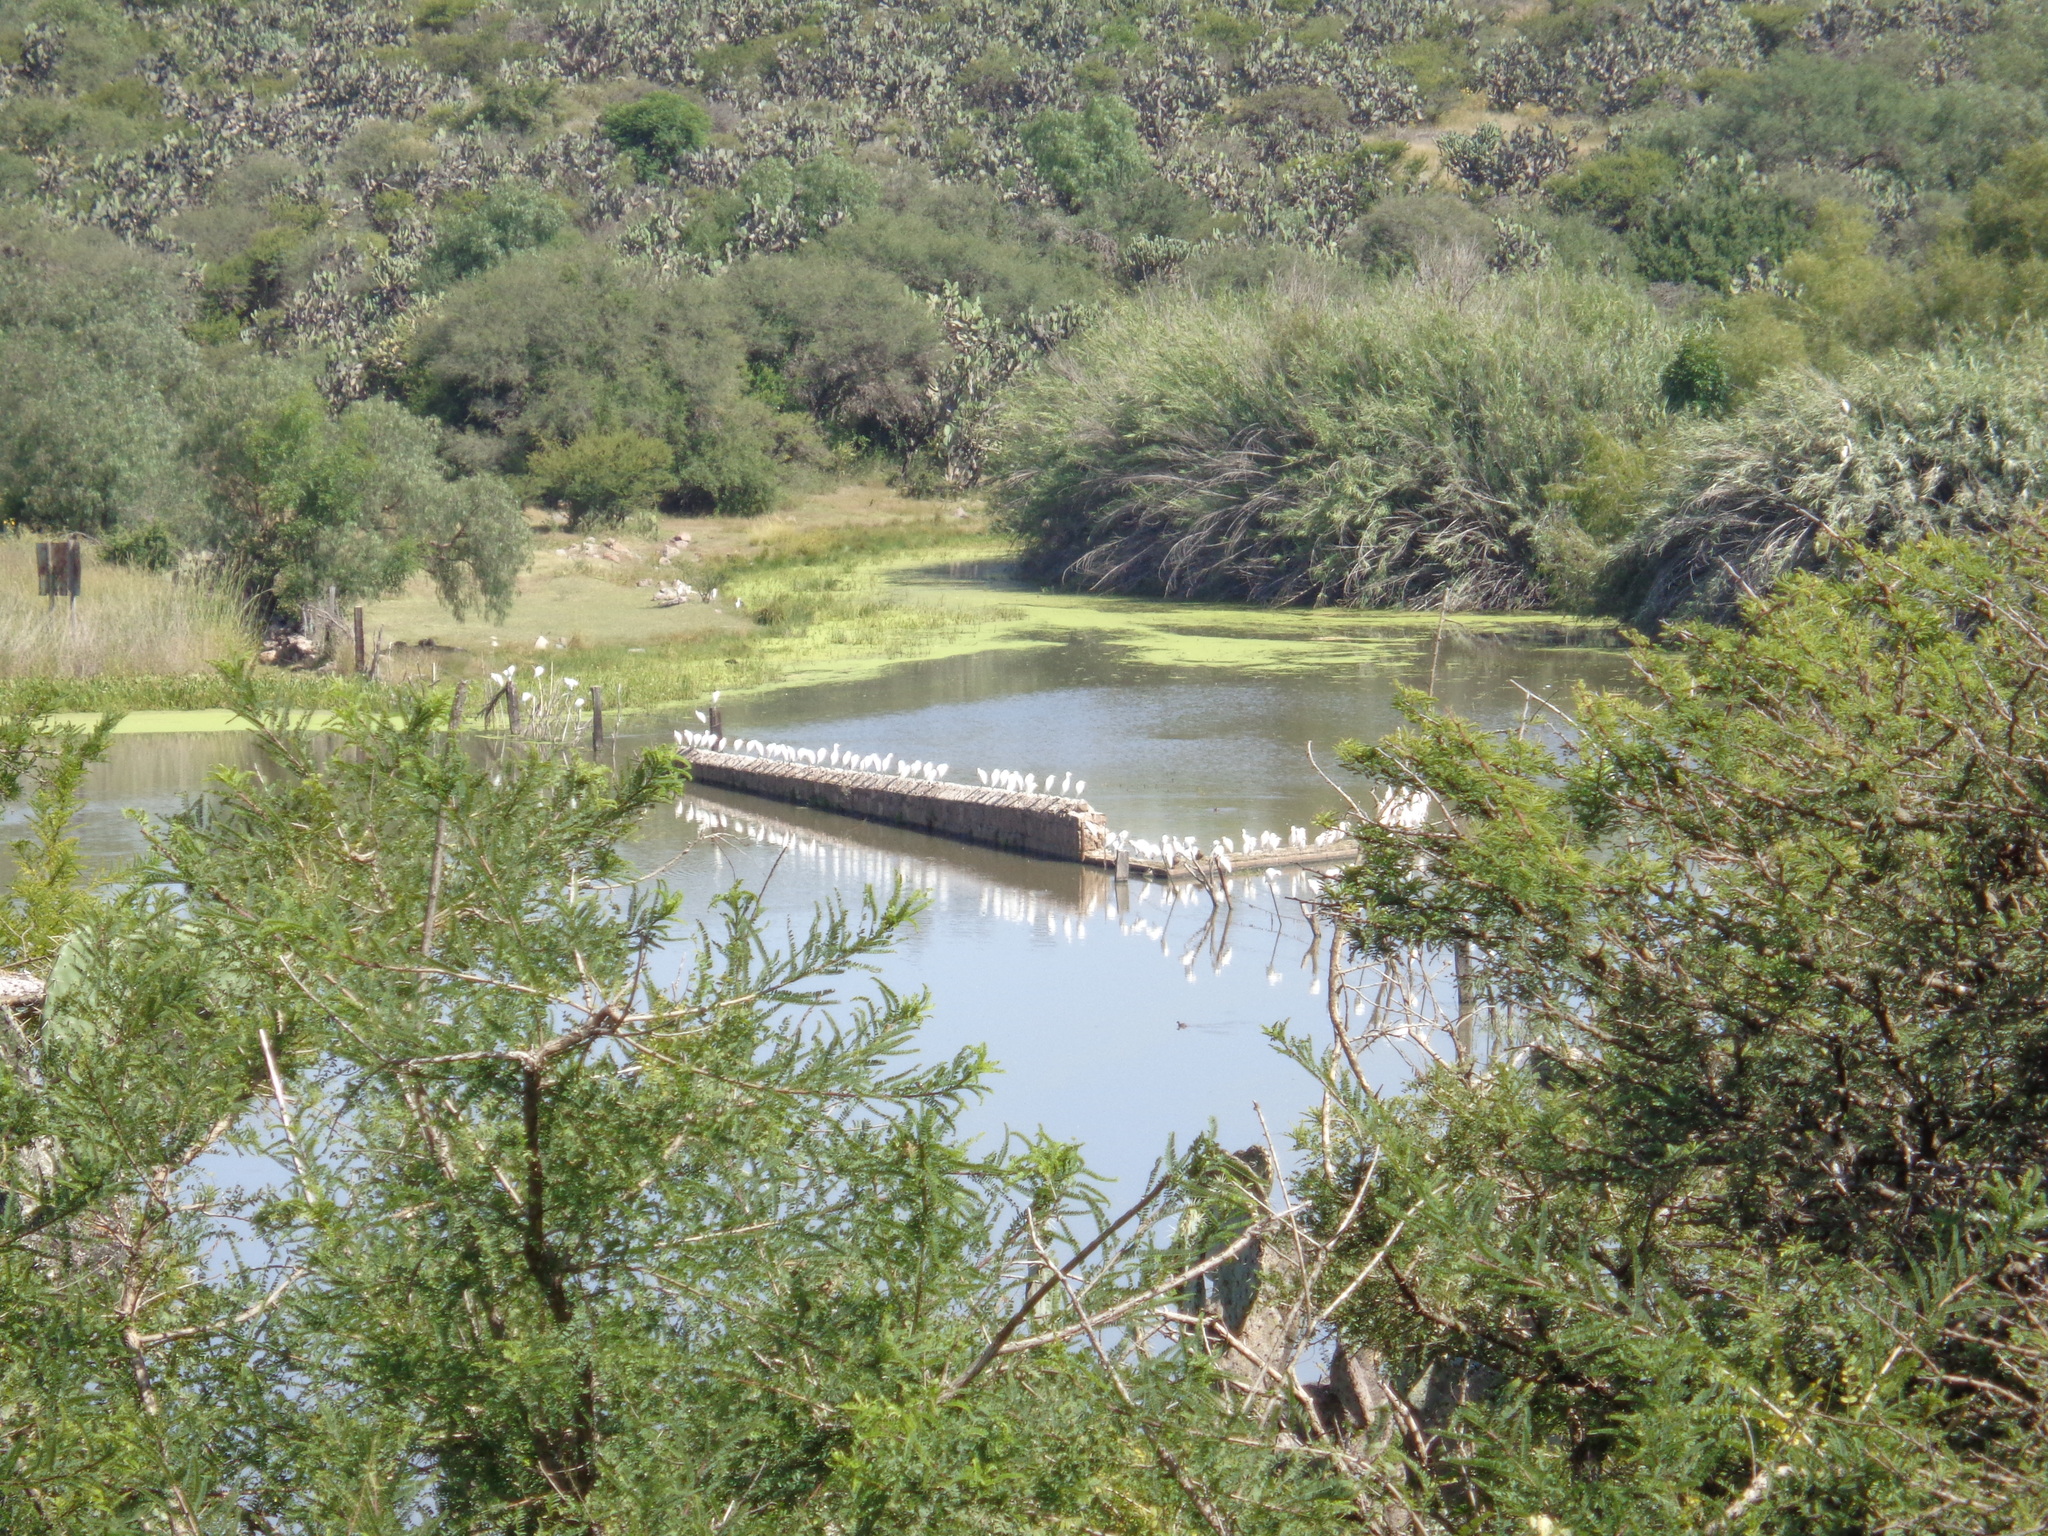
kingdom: Animalia
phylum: Chordata
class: Aves
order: Pelecaniformes
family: Ardeidae
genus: Bubulcus
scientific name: Bubulcus ibis
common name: Cattle egret
